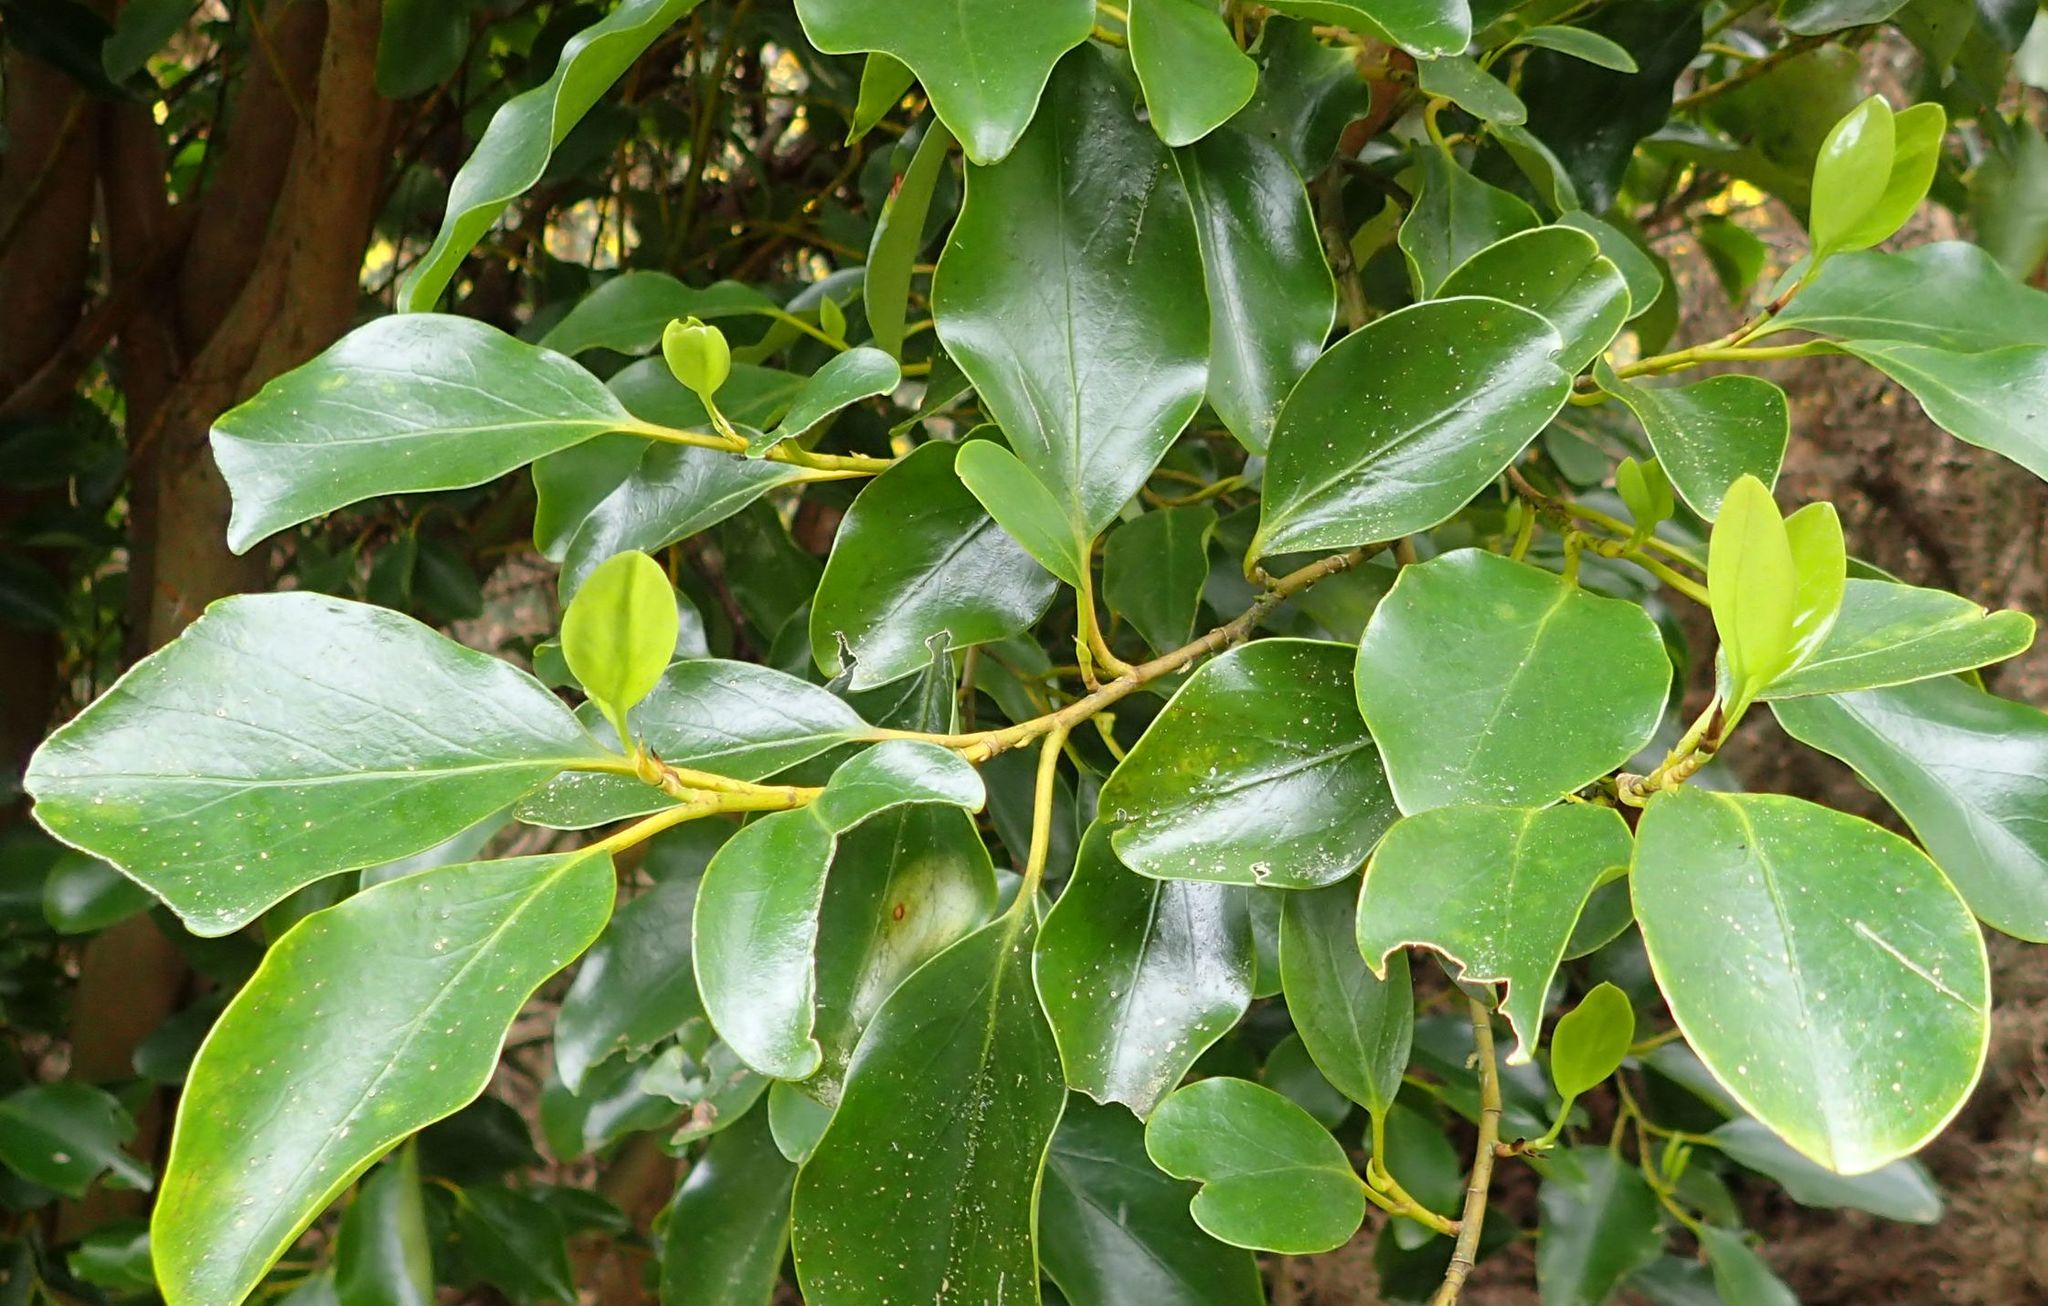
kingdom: Plantae
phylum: Tracheophyta
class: Magnoliopsida
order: Apiales
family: Griseliniaceae
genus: Griselinia
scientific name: Griselinia littoralis
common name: New zealand broadleaf
